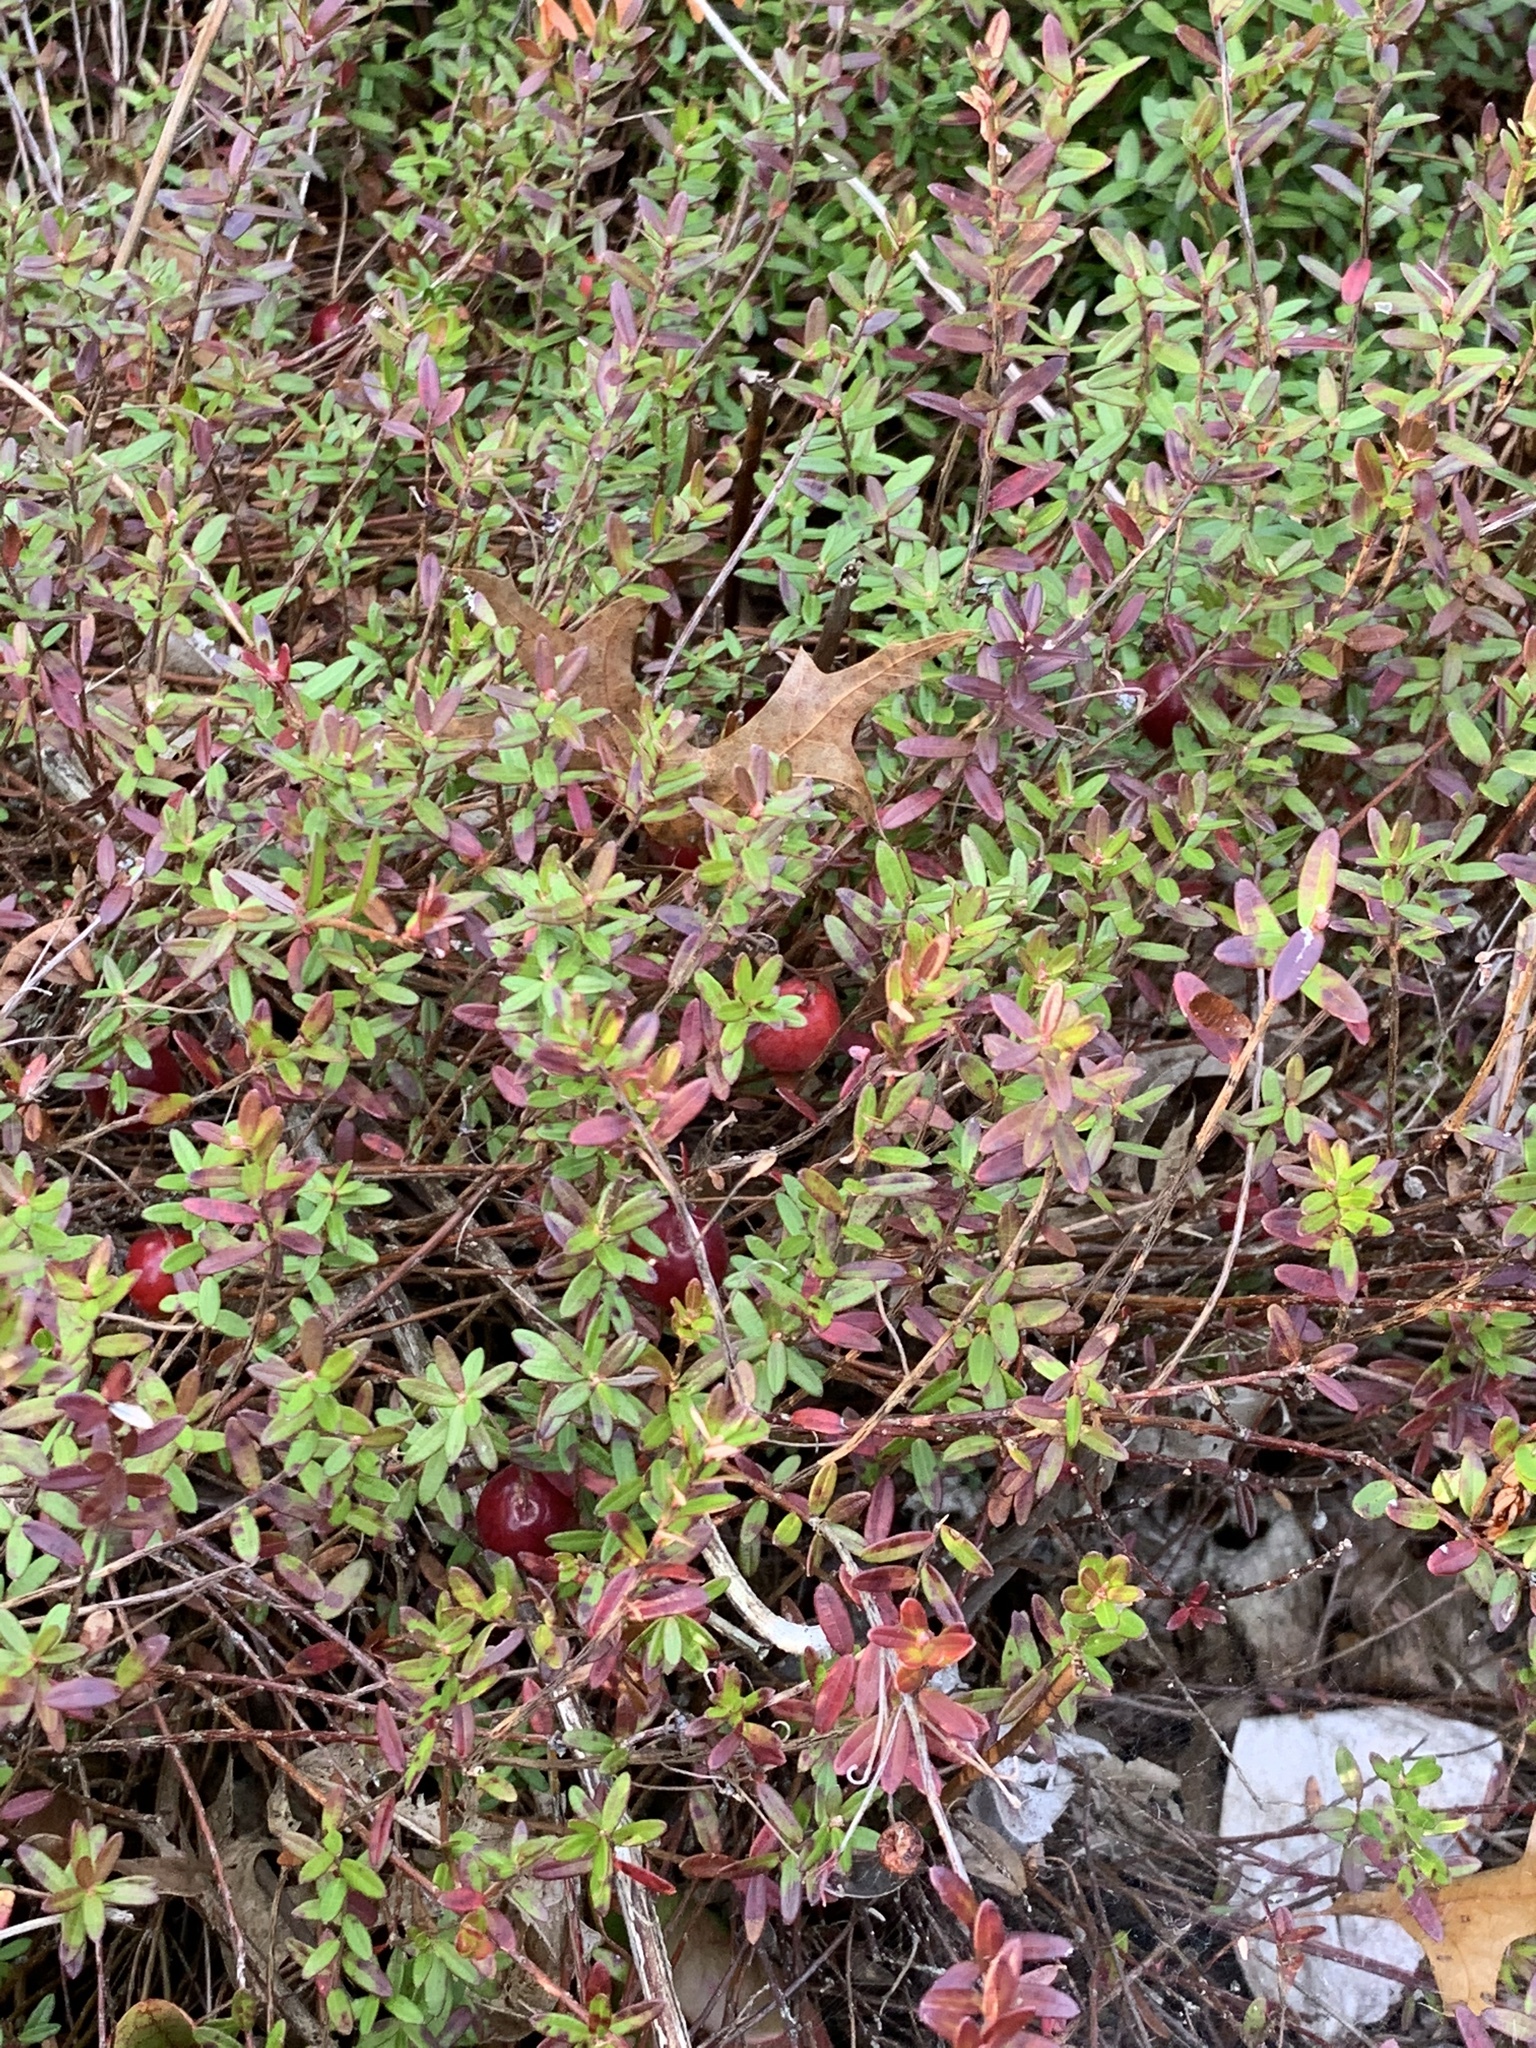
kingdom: Plantae
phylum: Tracheophyta
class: Magnoliopsida
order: Ericales
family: Ericaceae
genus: Vaccinium
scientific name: Vaccinium macrocarpon
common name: American cranberry
